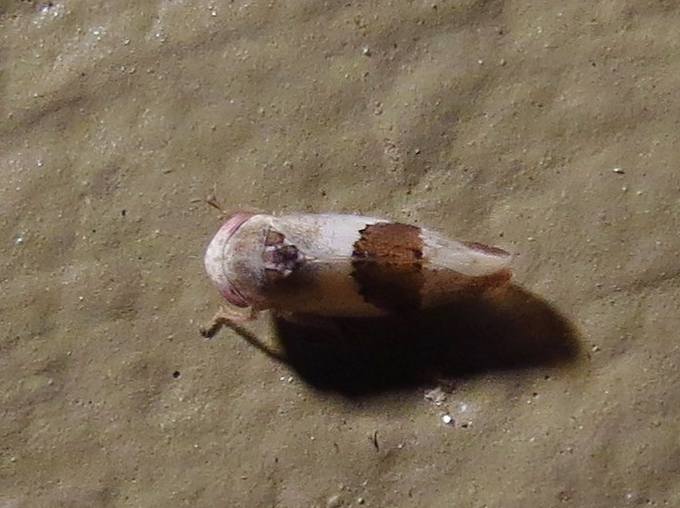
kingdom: Animalia
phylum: Arthropoda
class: Insecta
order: Hemiptera
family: Cicadellidae
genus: Norvellina
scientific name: Norvellina seminuda
